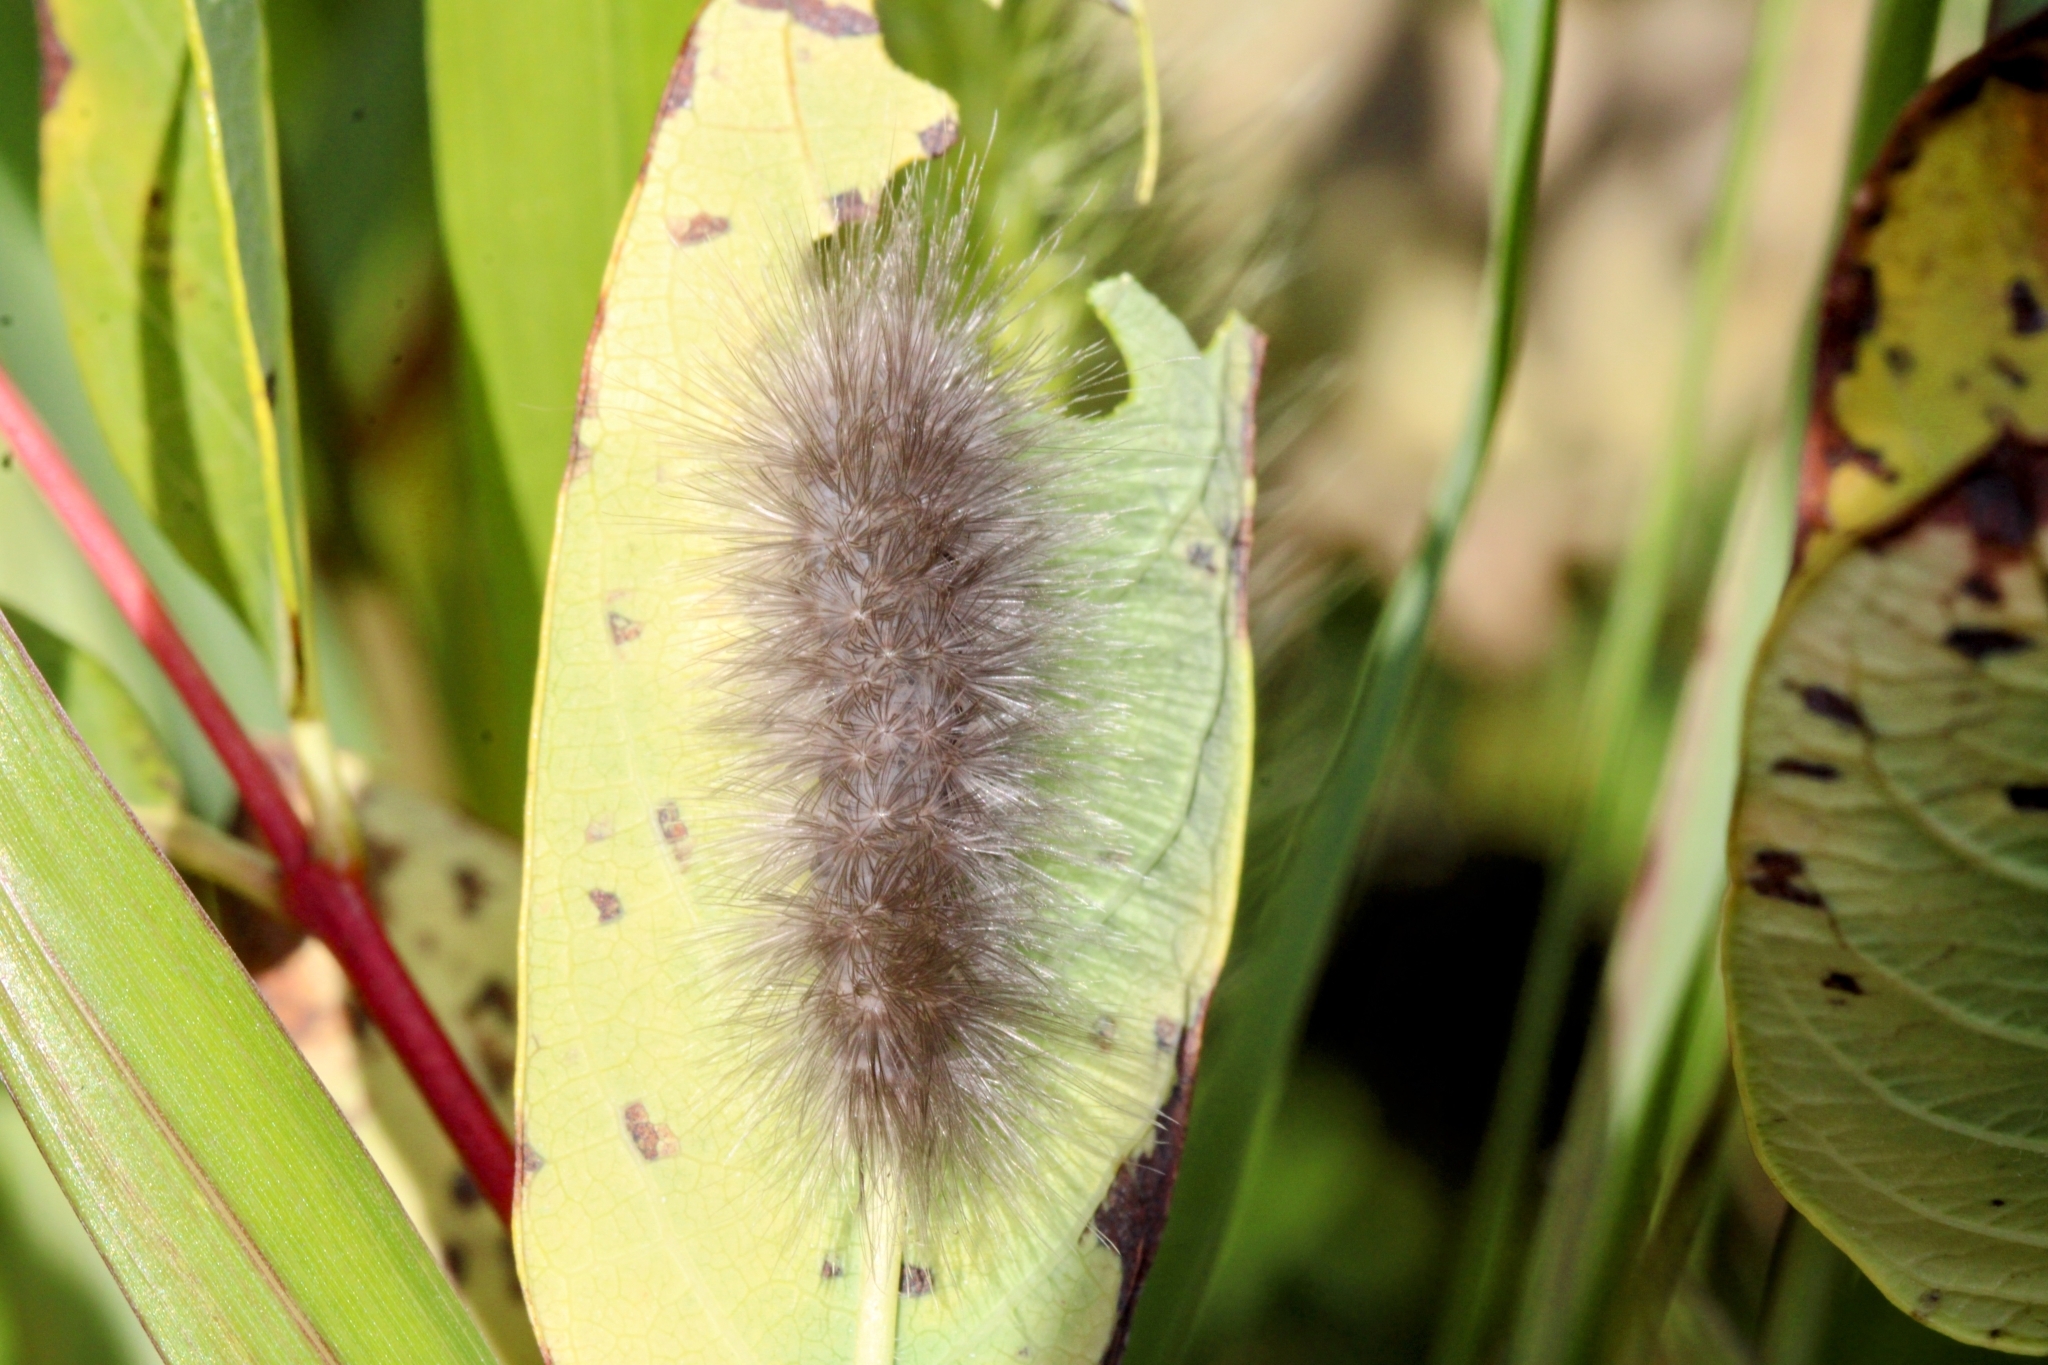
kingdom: Animalia
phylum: Arthropoda
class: Insecta
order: Lepidoptera
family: Erebidae
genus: Cycnia
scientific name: Cycnia tenera
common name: Delicate cycnia moth
